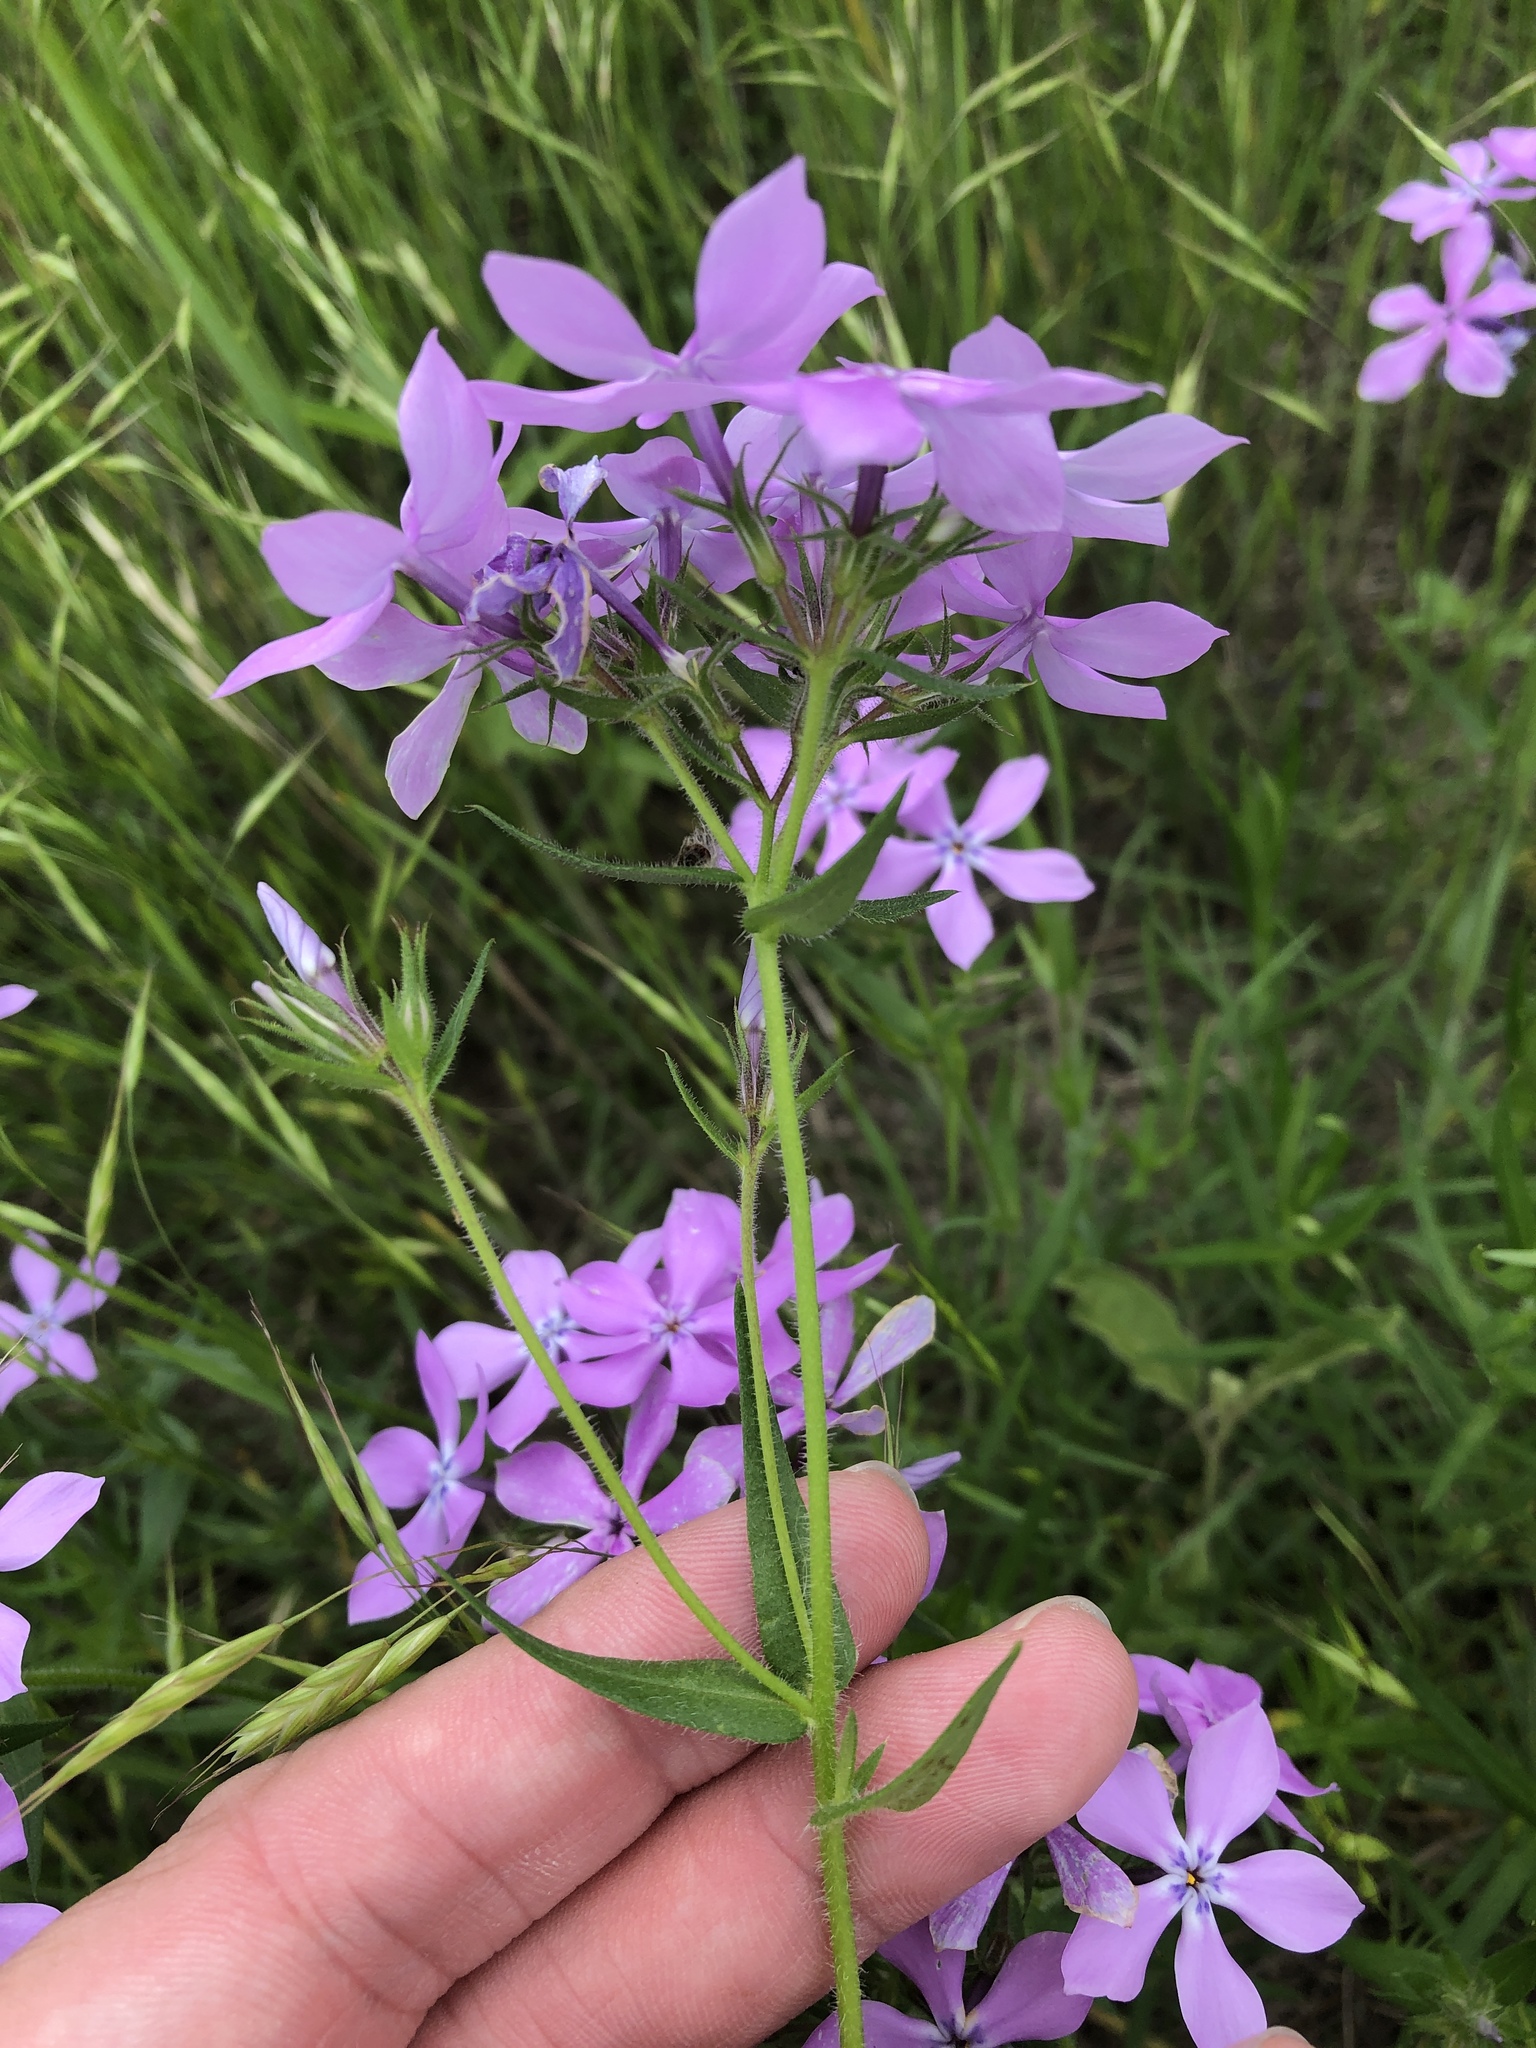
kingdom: Plantae
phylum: Tracheophyta
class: Magnoliopsida
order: Ericales
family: Polemoniaceae
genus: Phlox
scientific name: Phlox pilosa
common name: Prairie phlox
